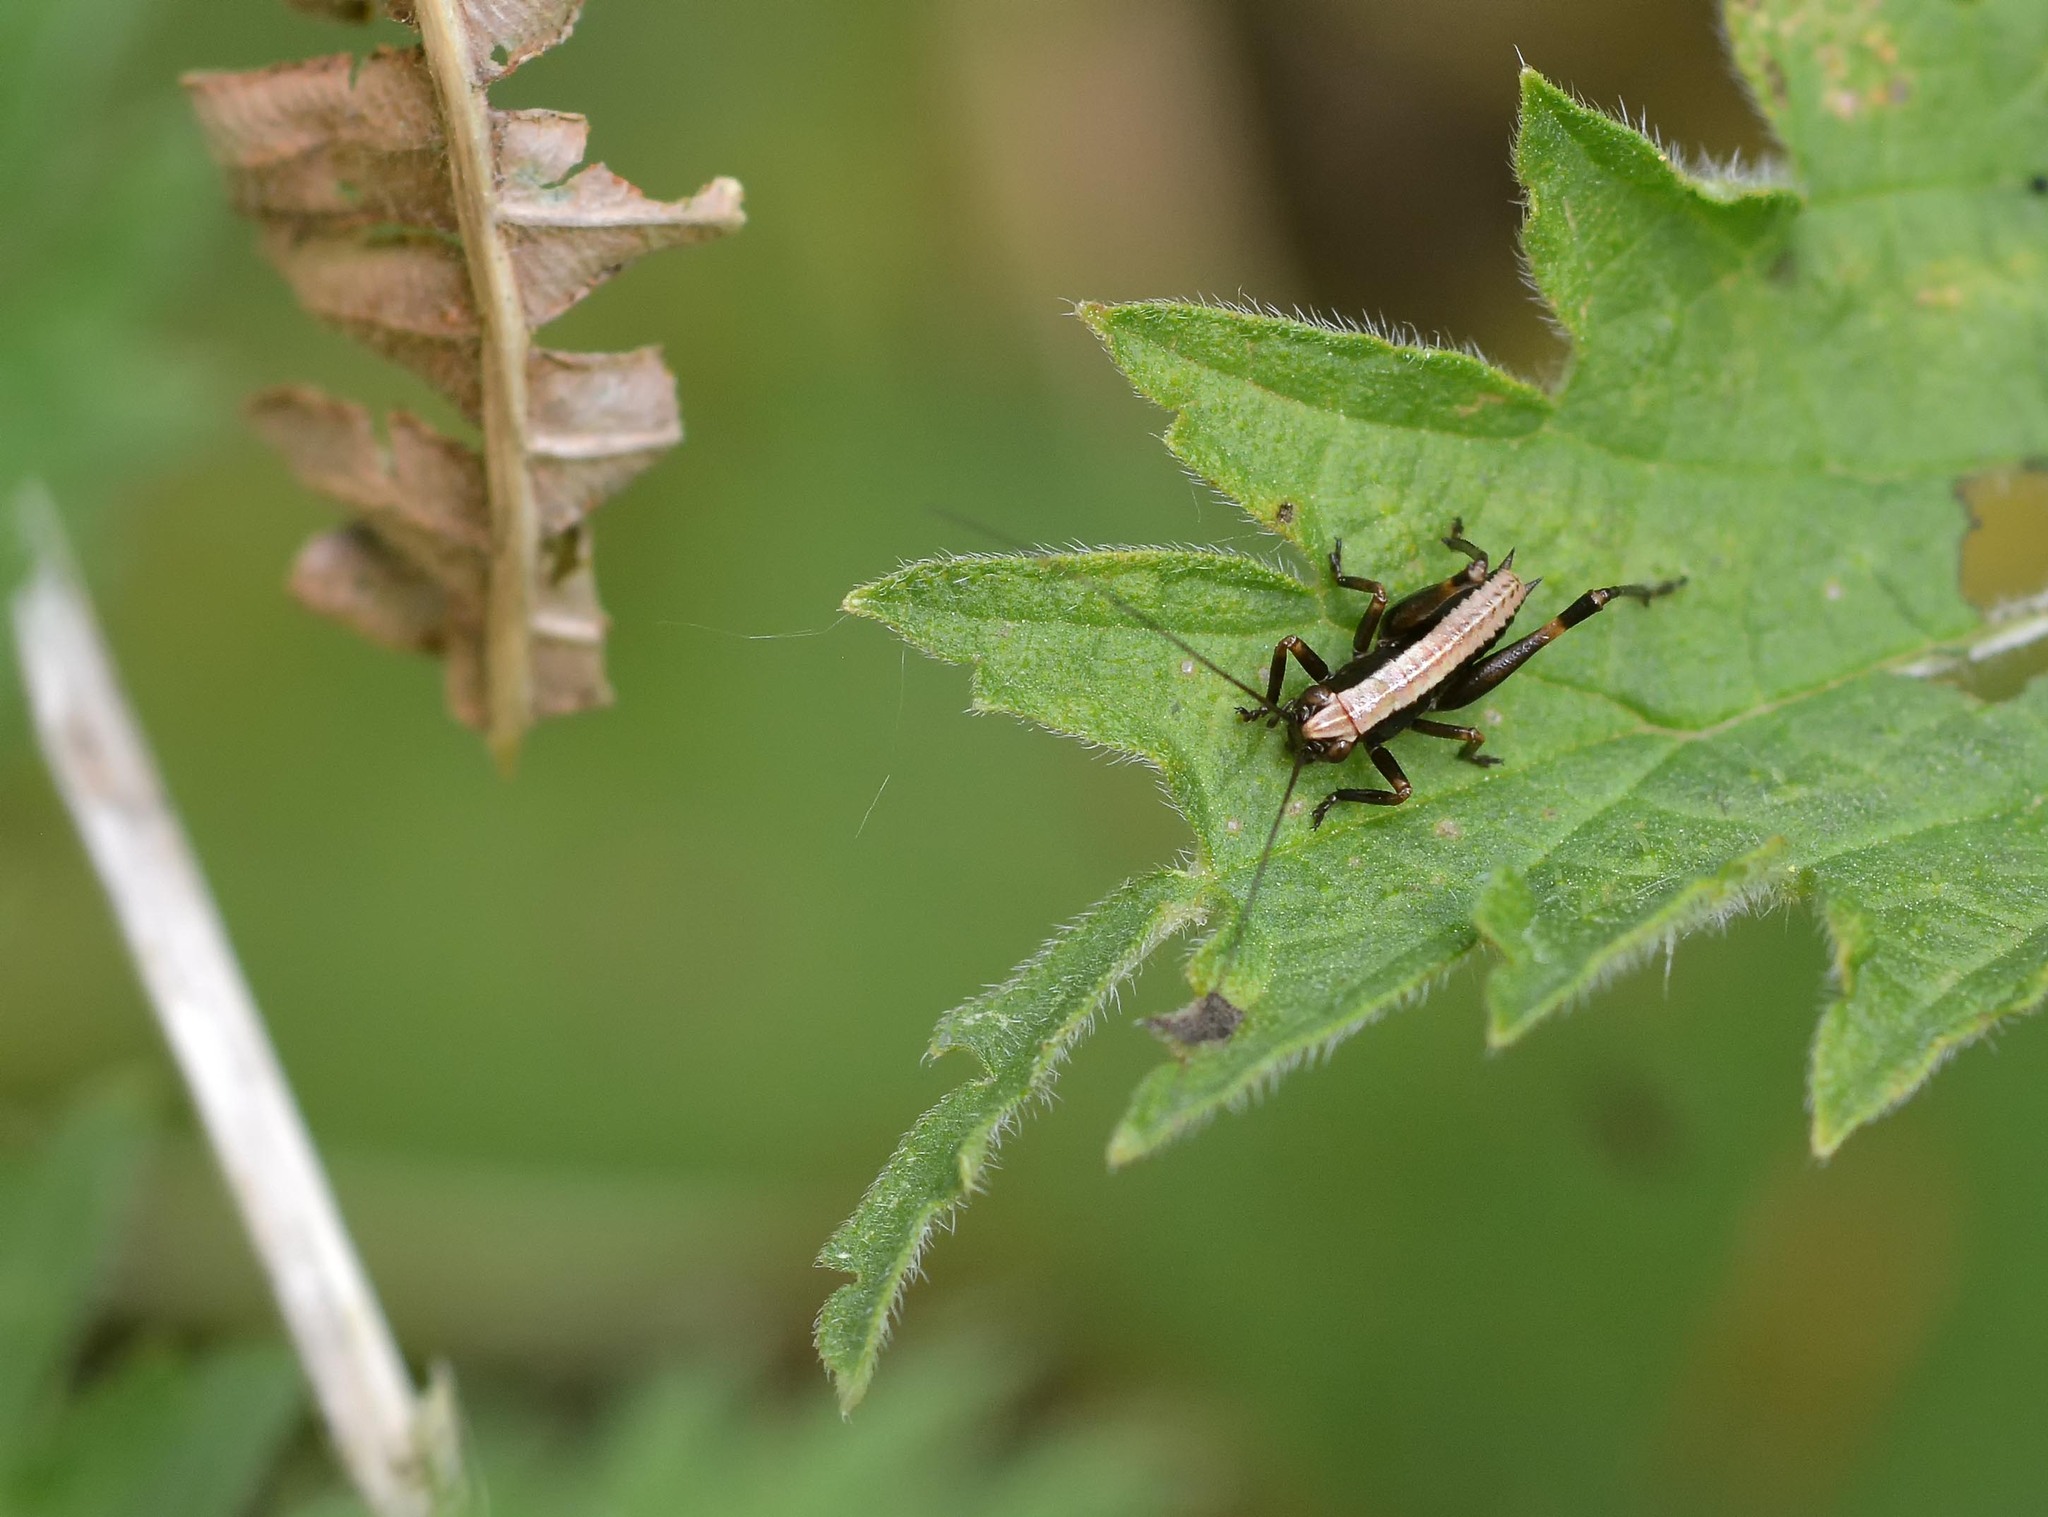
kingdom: Animalia
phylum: Arthropoda
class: Insecta
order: Orthoptera
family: Tettigoniidae
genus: Pholidoptera
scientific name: Pholidoptera griseoaptera
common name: Dark bush-cricket
